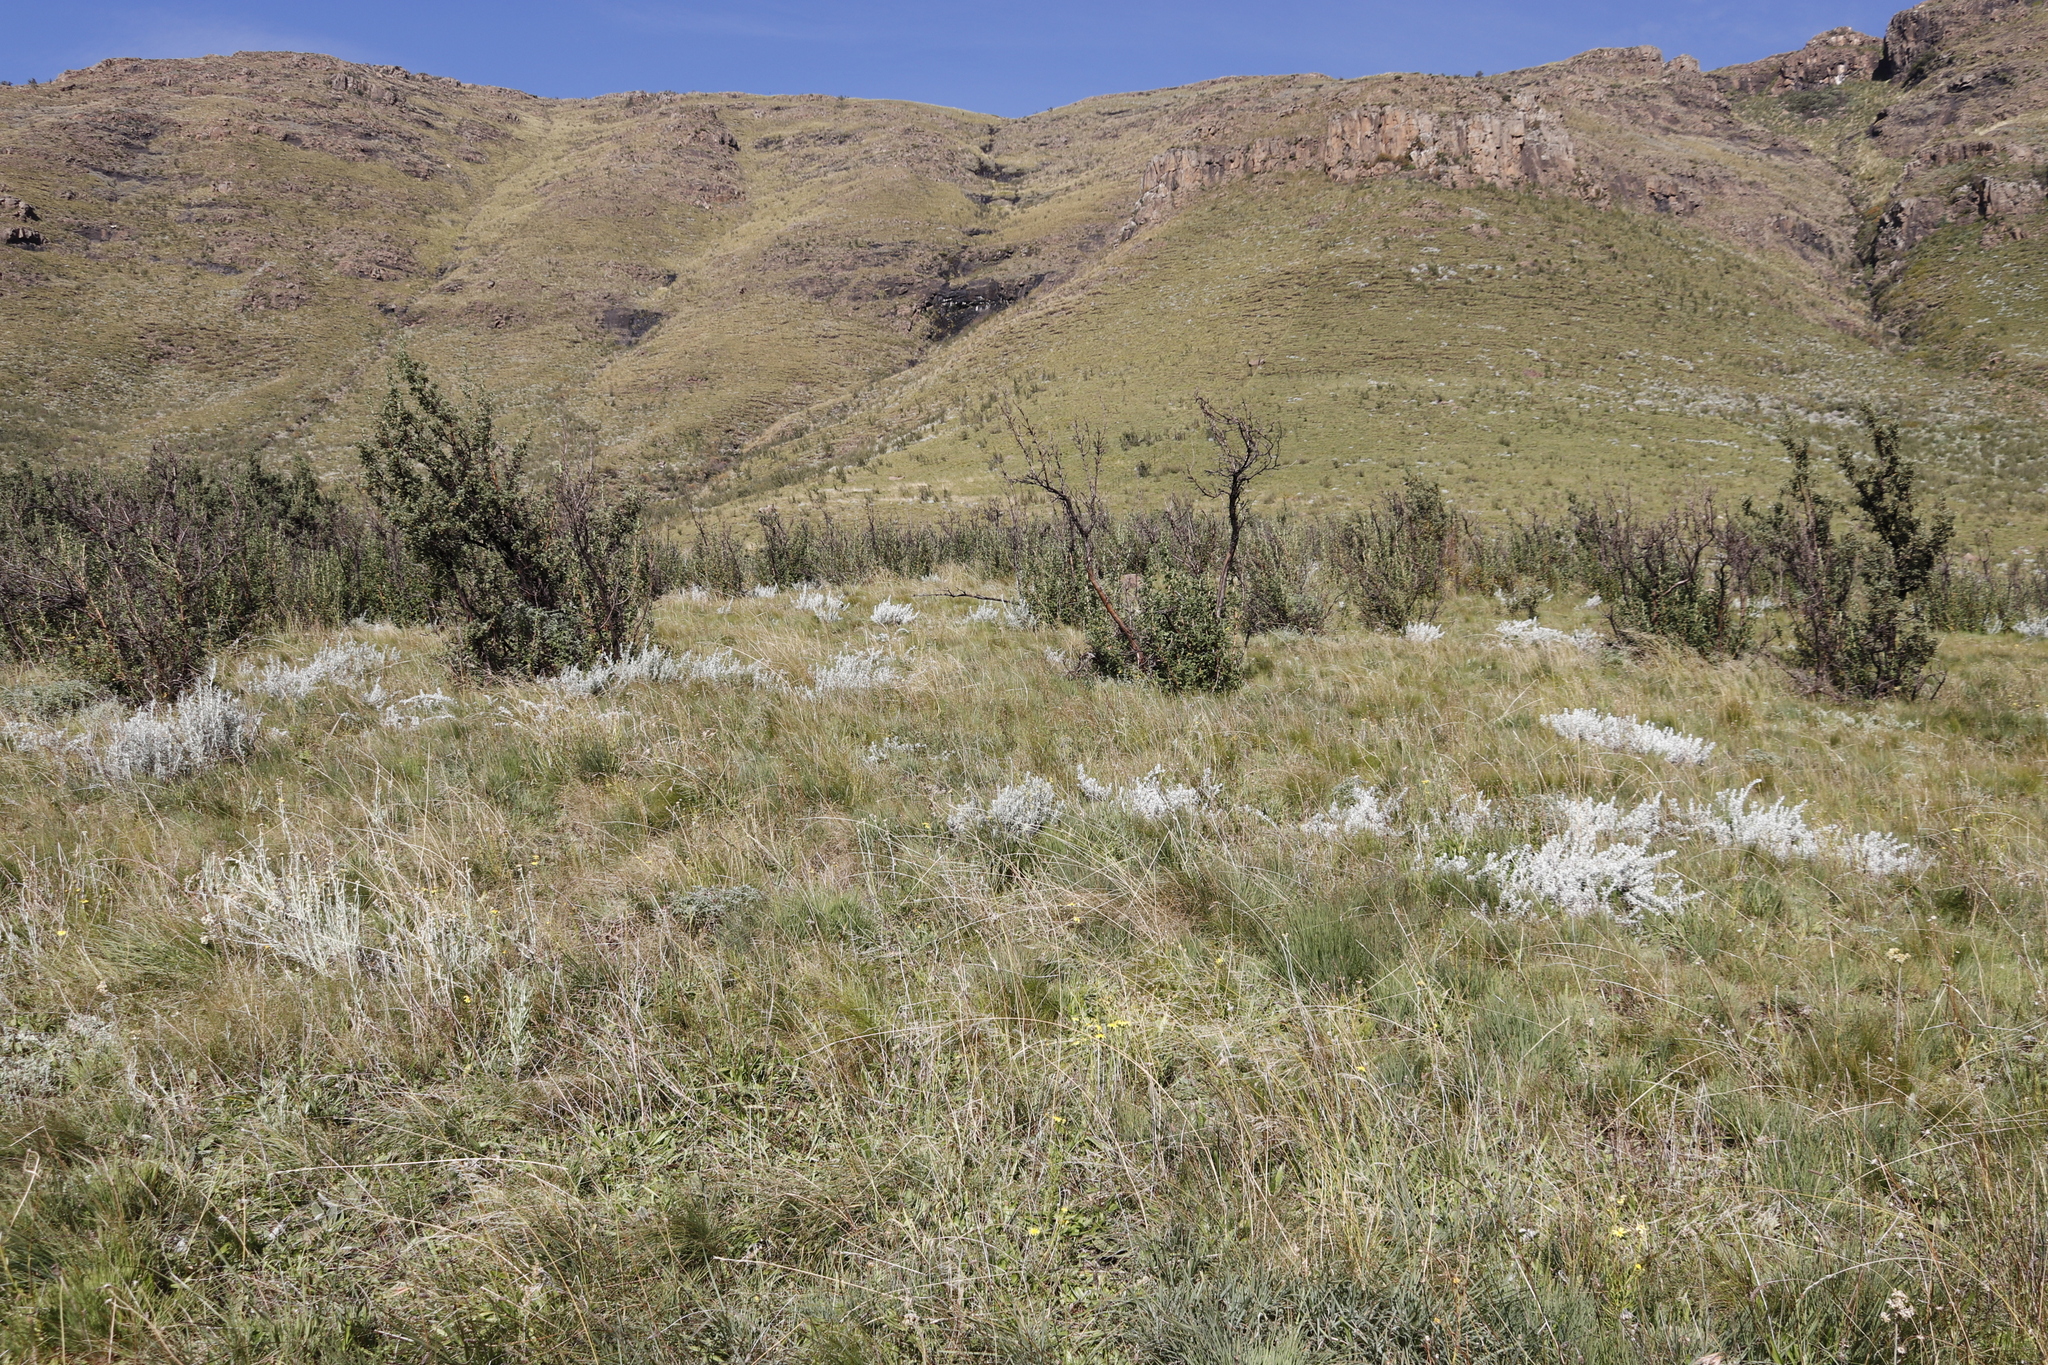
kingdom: Plantae
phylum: Tracheophyta
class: Magnoliopsida
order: Rosales
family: Rosaceae
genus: Leucosidea
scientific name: Leucosidea sericea
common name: Oldwood
